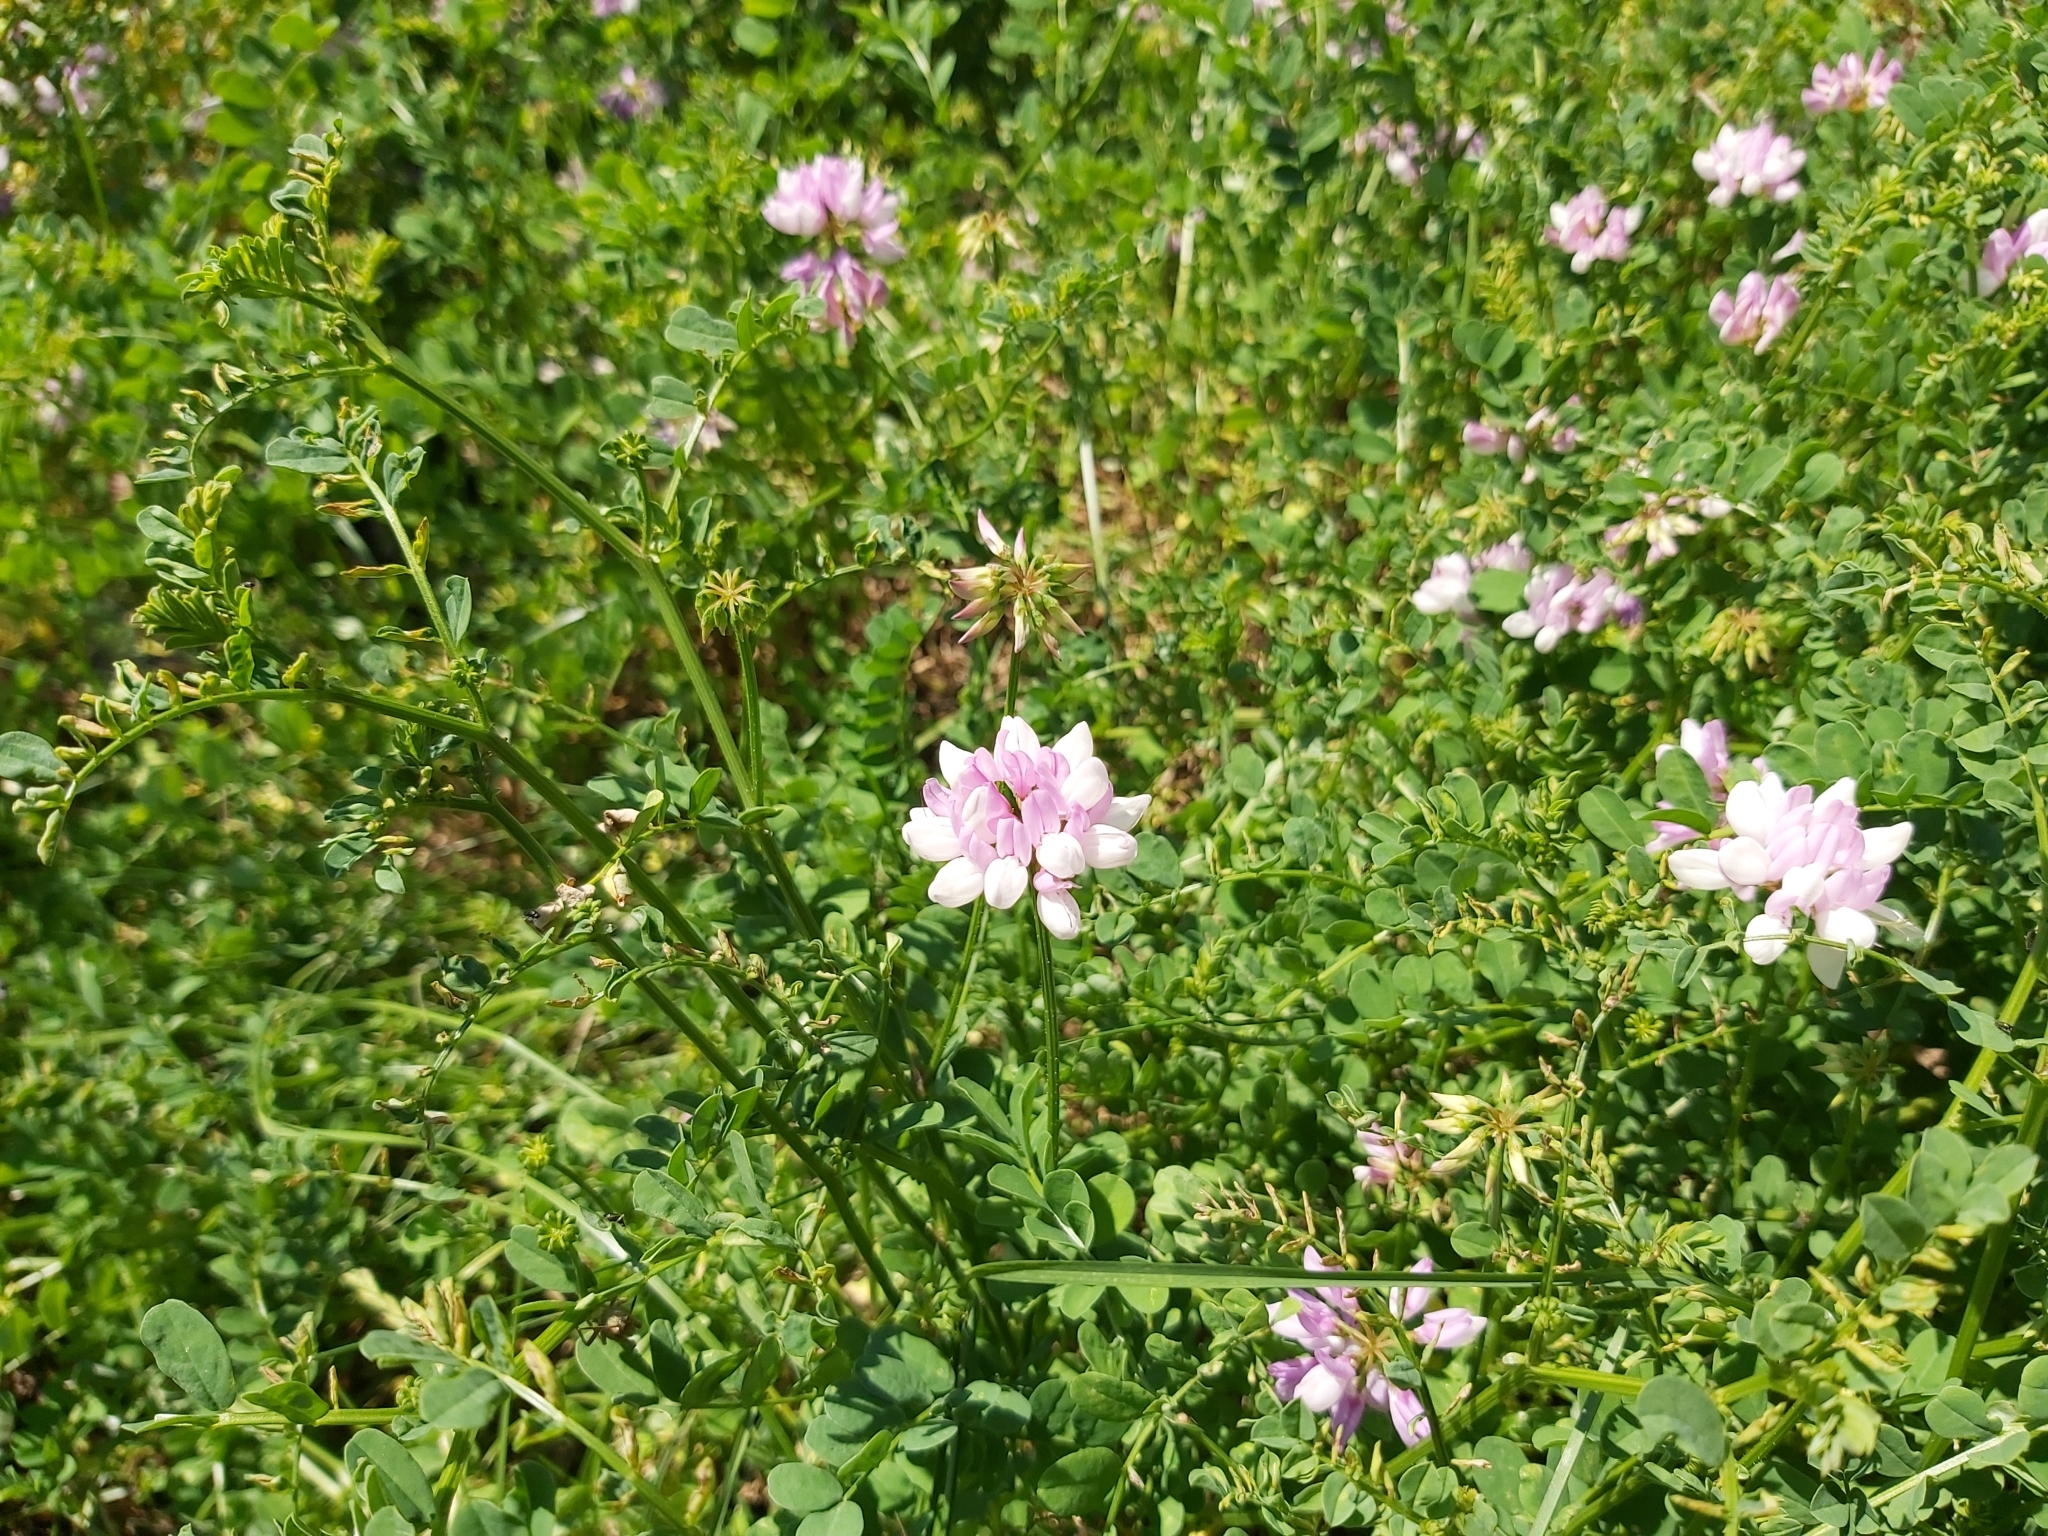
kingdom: Plantae
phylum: Tracheophyta
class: Magnoliopsida
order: Fabales
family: Fabaceae
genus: Coronilla
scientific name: Coronilla varia
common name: Crownvetch
